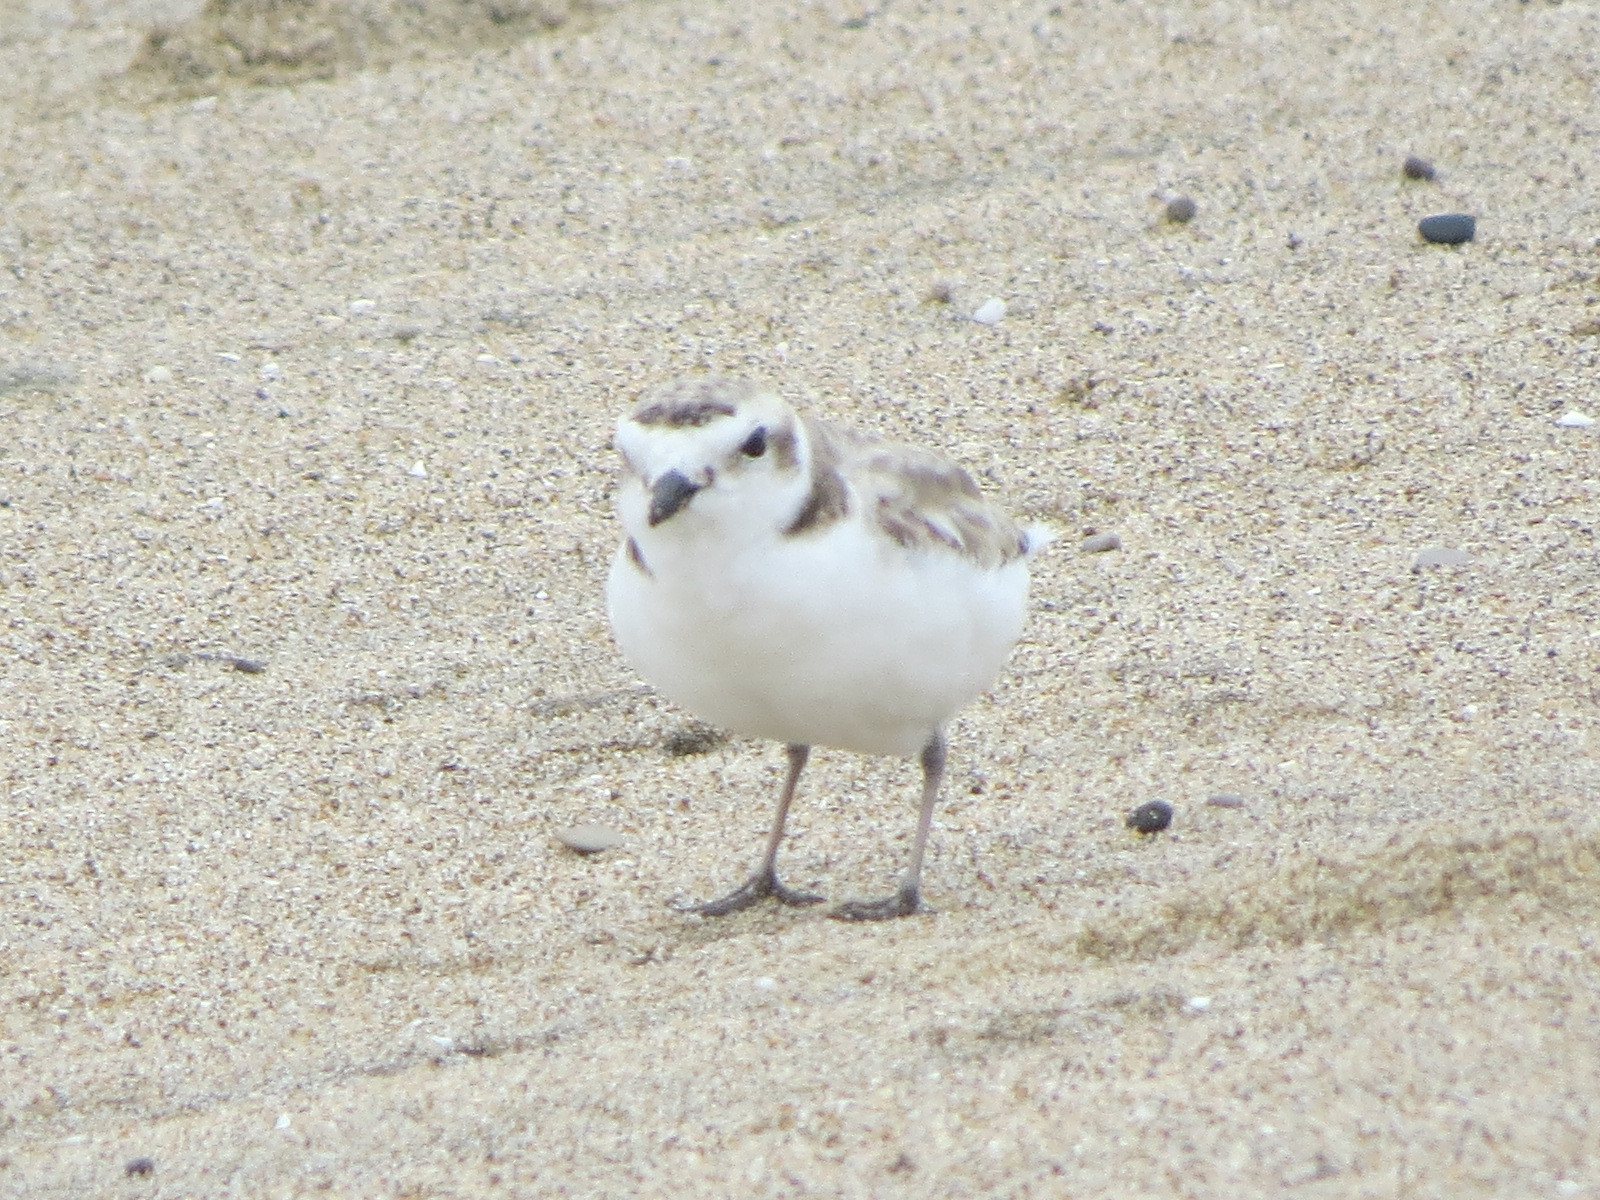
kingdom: Animalia
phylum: Chordata
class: Aves
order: Charadriiformes
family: Charadriidae
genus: Anarhynchus
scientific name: Anarhynchus
